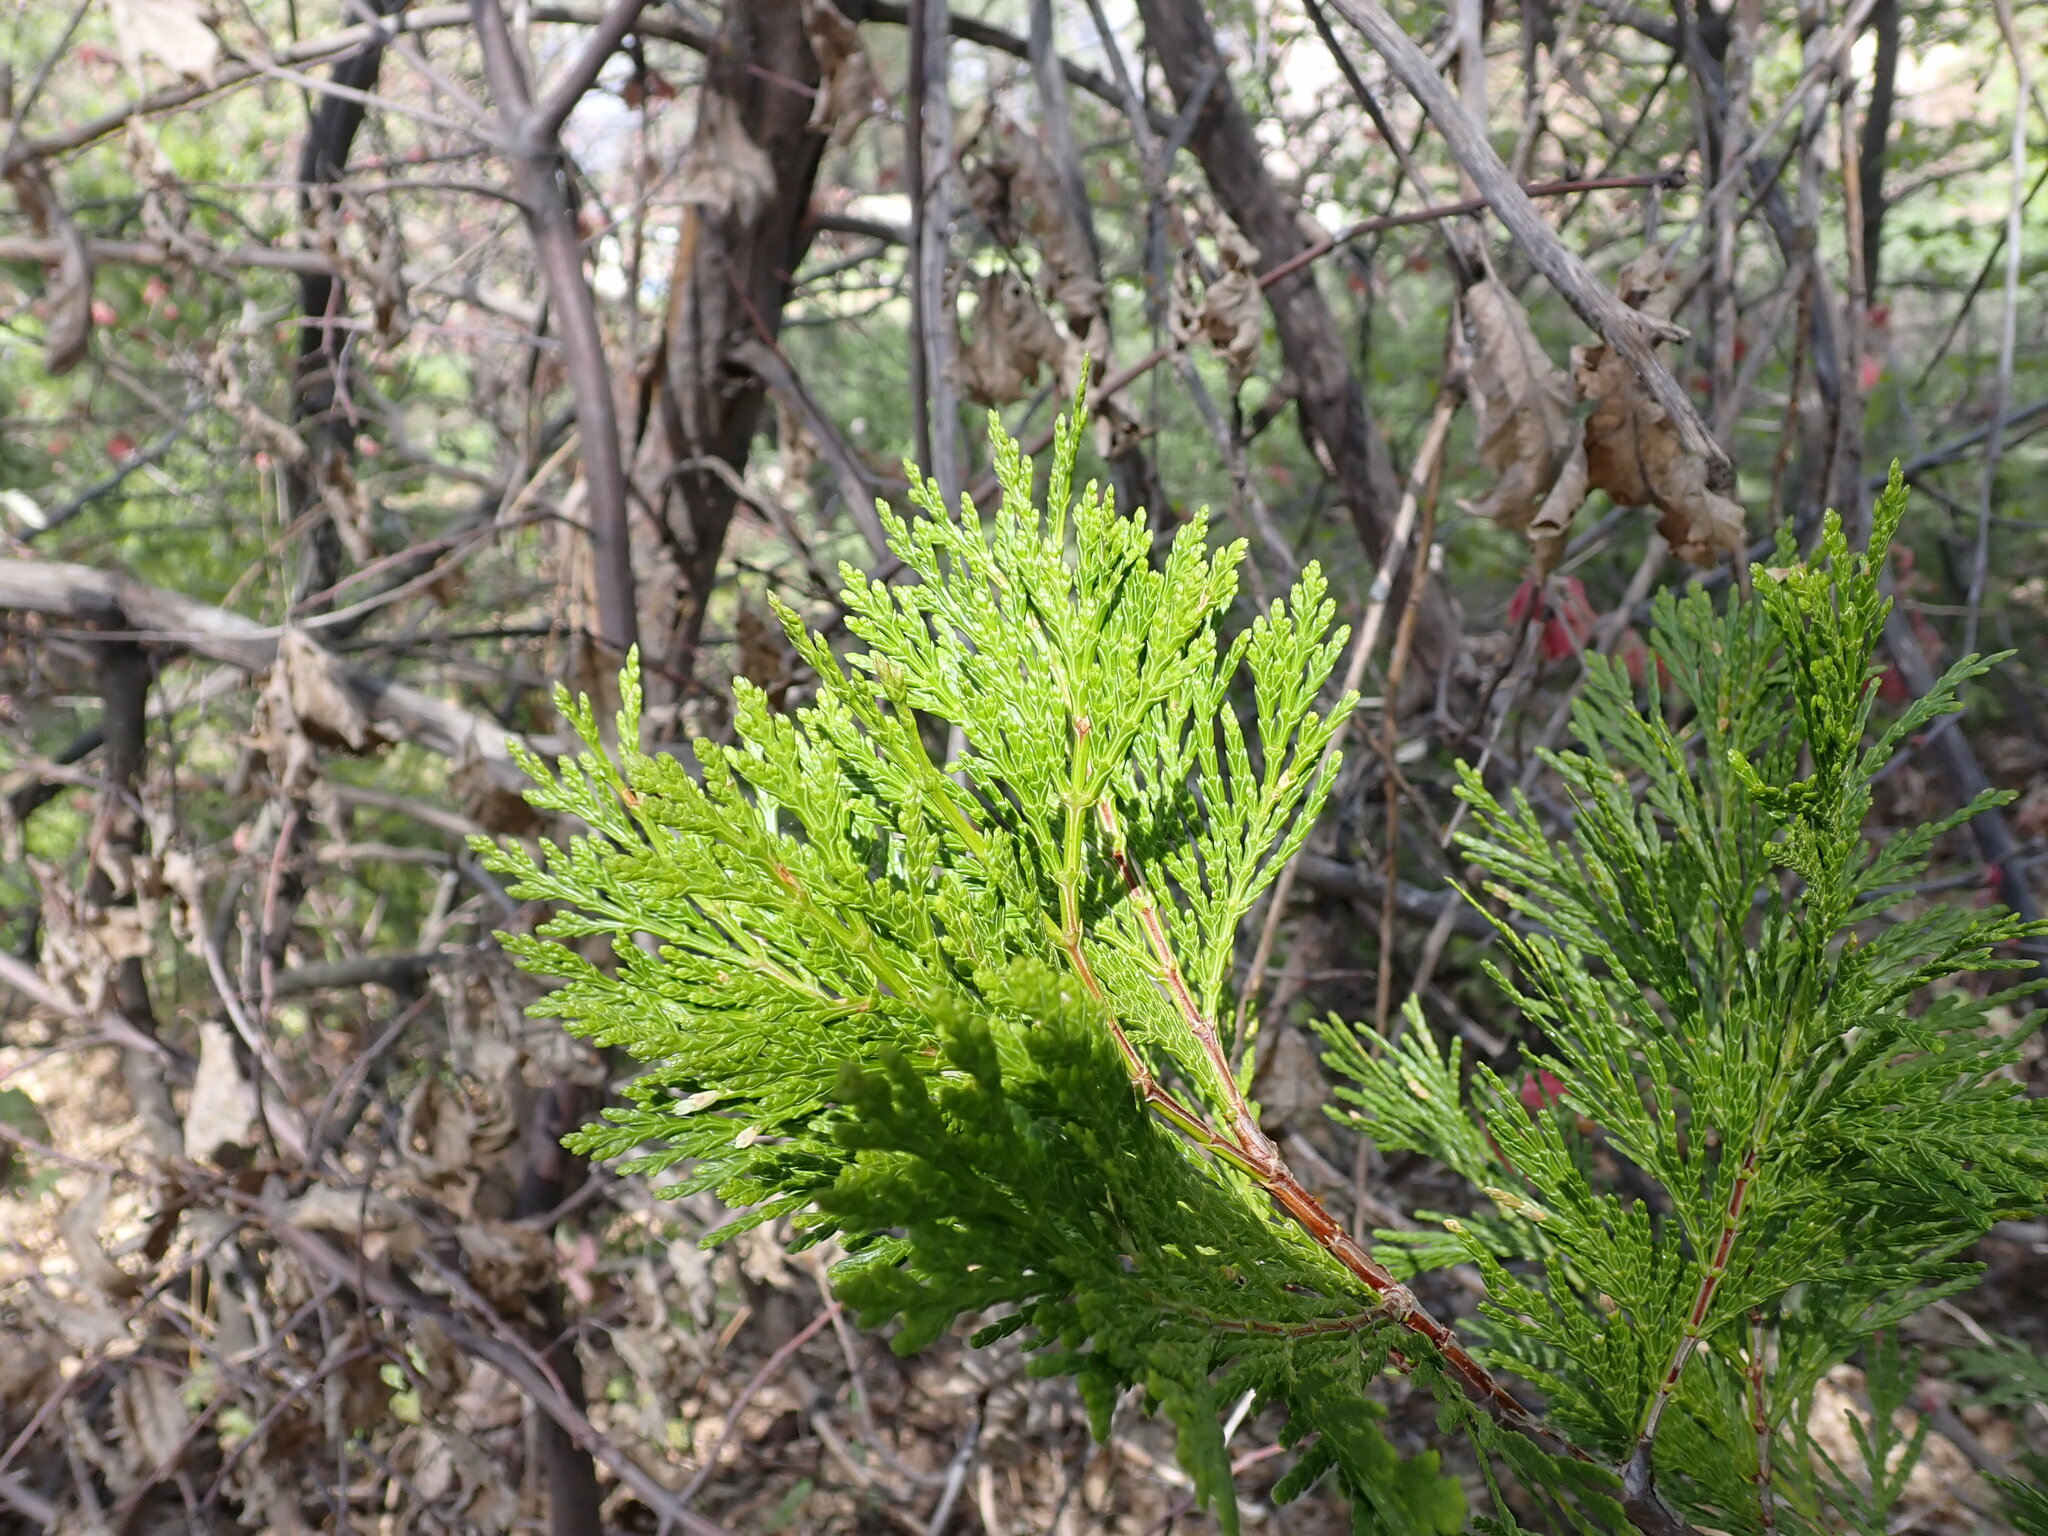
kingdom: Plantae
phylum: Tracheophyta
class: Pinopsida
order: Pinales
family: Cupressaceae
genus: Calocedrus
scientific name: Calocedrus decurrens
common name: Californian incense-cedar
